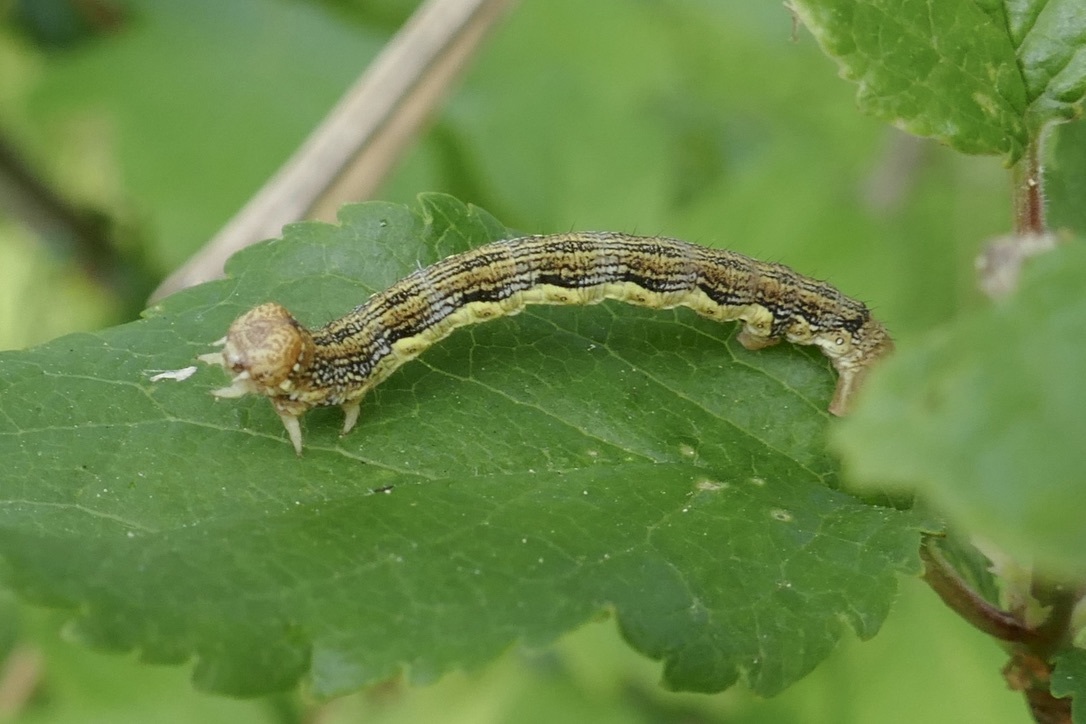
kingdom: Animalia
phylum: Arthropoda
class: Insecta
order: Lepidoptera
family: Geometridae
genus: Erannis
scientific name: Erannis defoliaria
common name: Mottled umber
